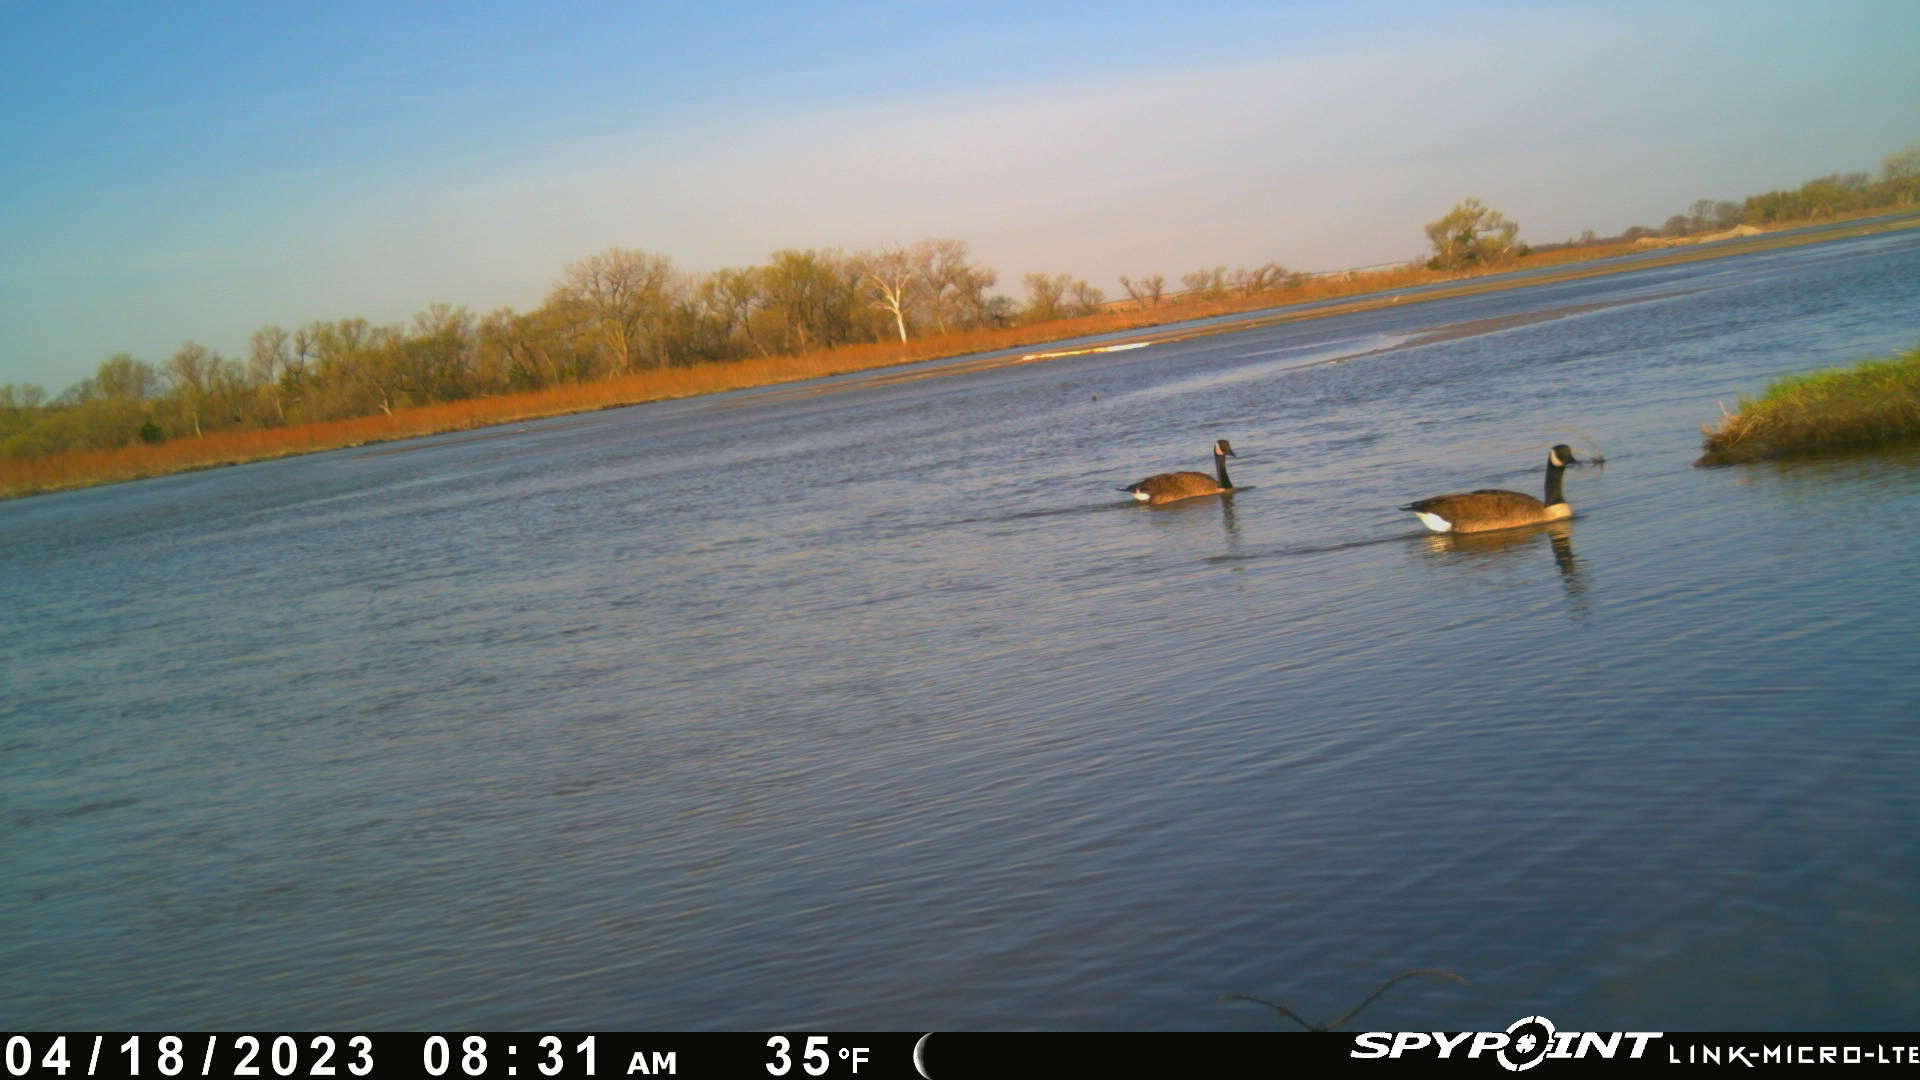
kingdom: Animalia
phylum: Chordata
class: Aves
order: Anseriformes
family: Anatidae
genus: Branta
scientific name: Branta canadensis
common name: Canada goose
